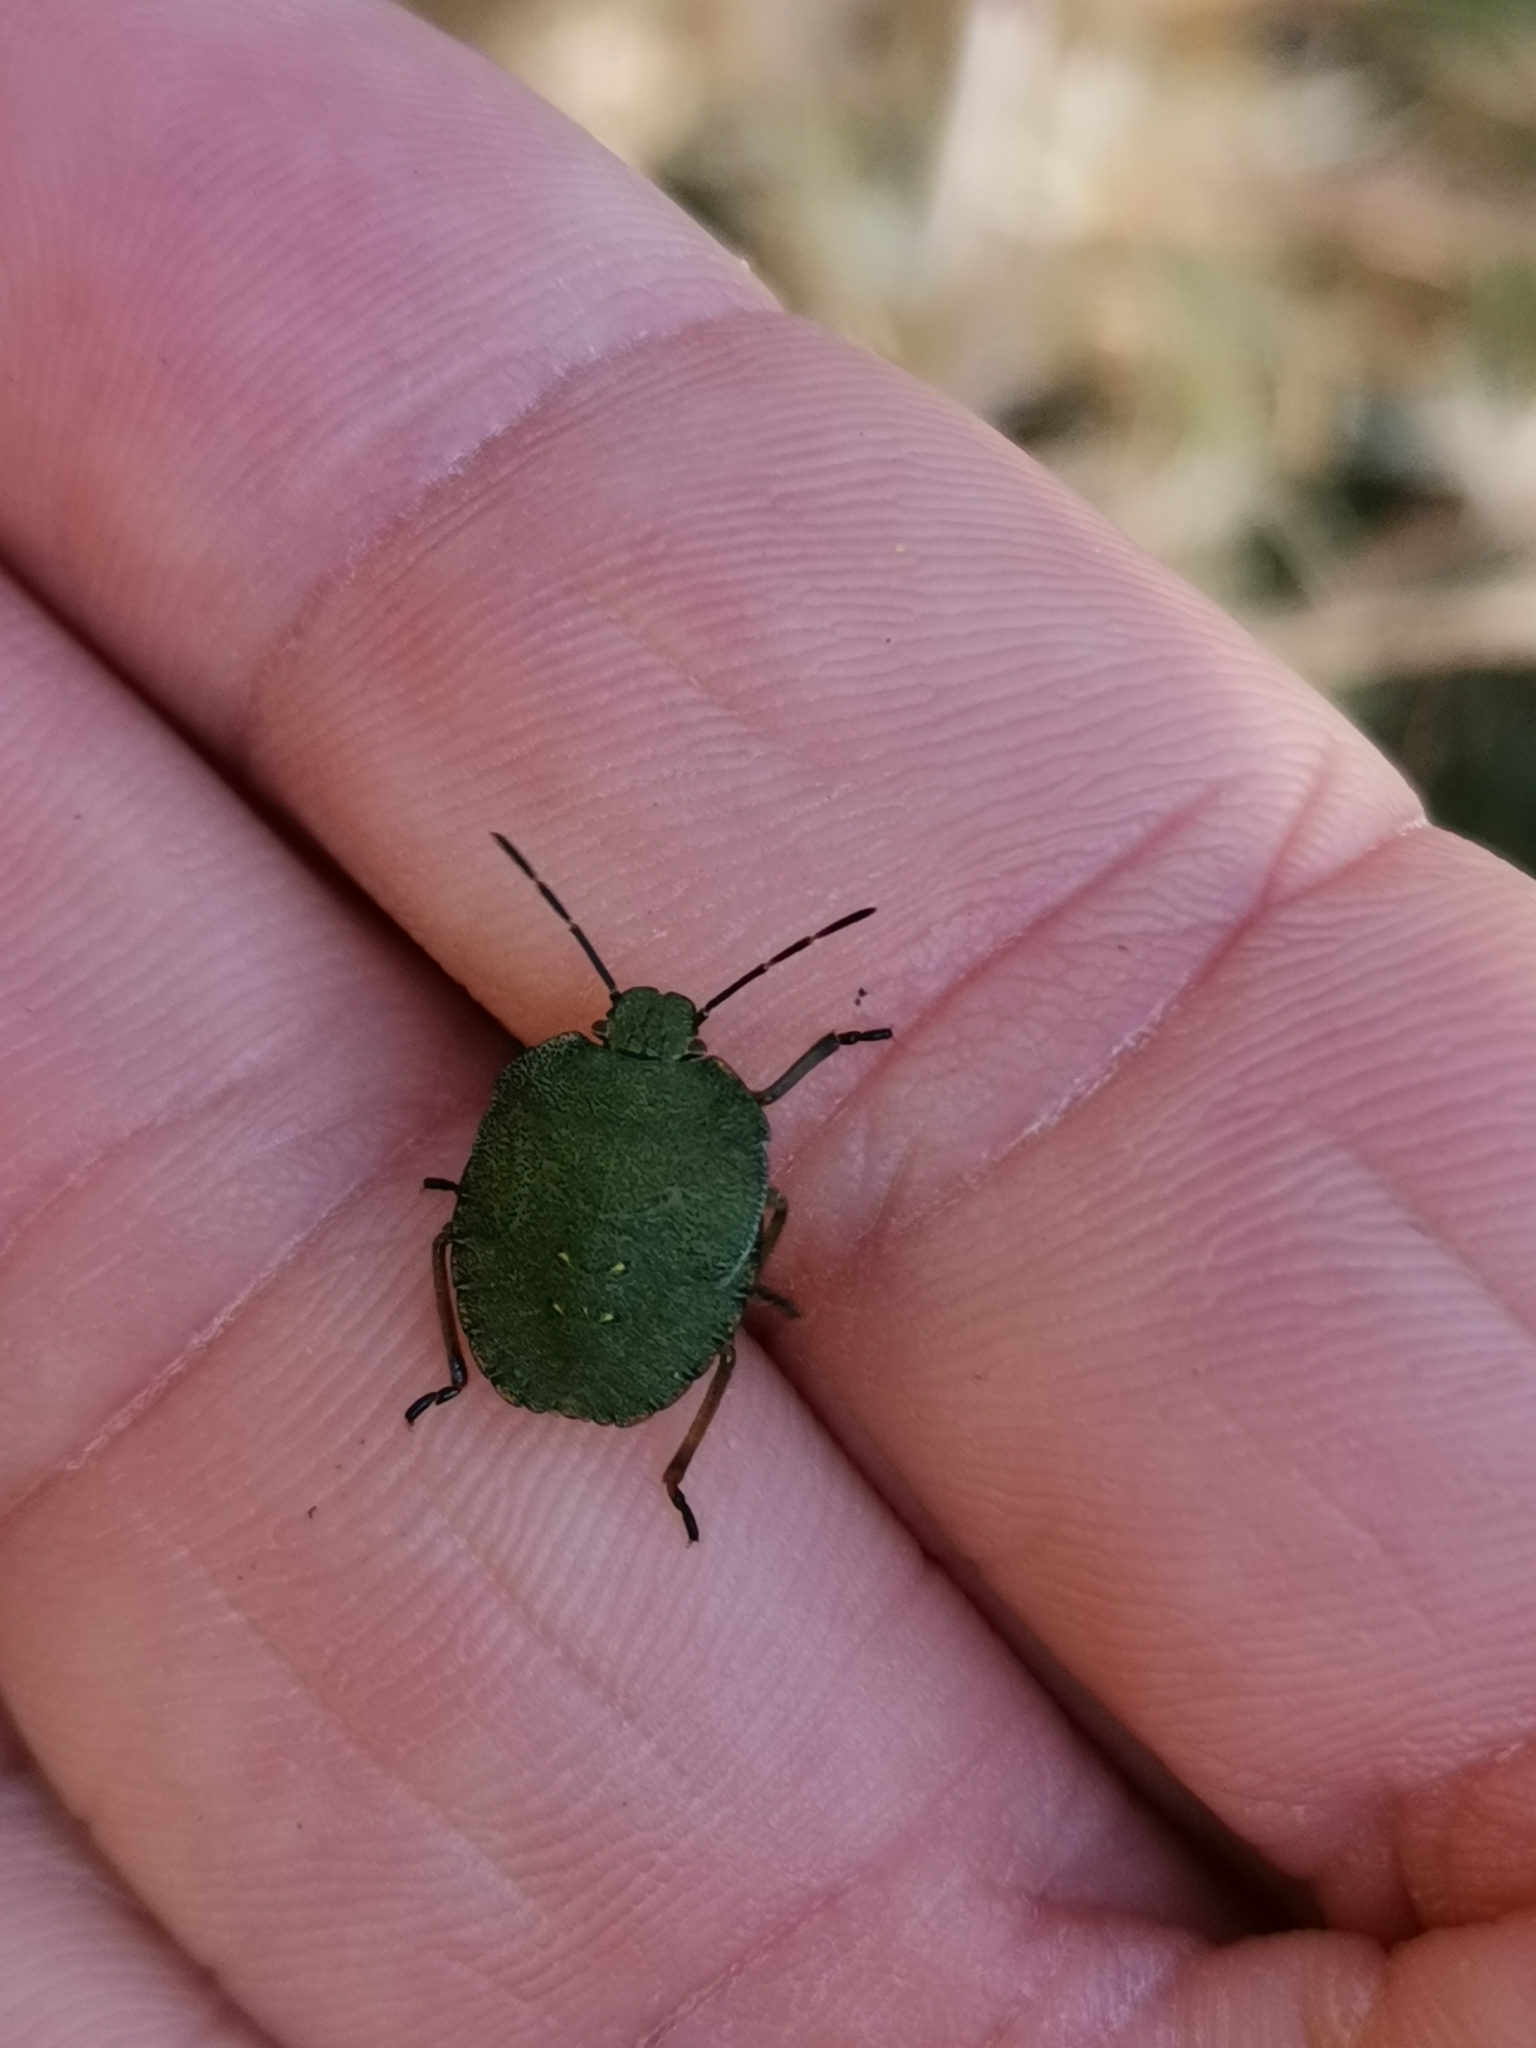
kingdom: Animalia
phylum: Arthropoda
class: Insecta
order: Hemiptera
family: Pentatomidae
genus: Palomena
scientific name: Palomena prasina
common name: Green shieldbug
